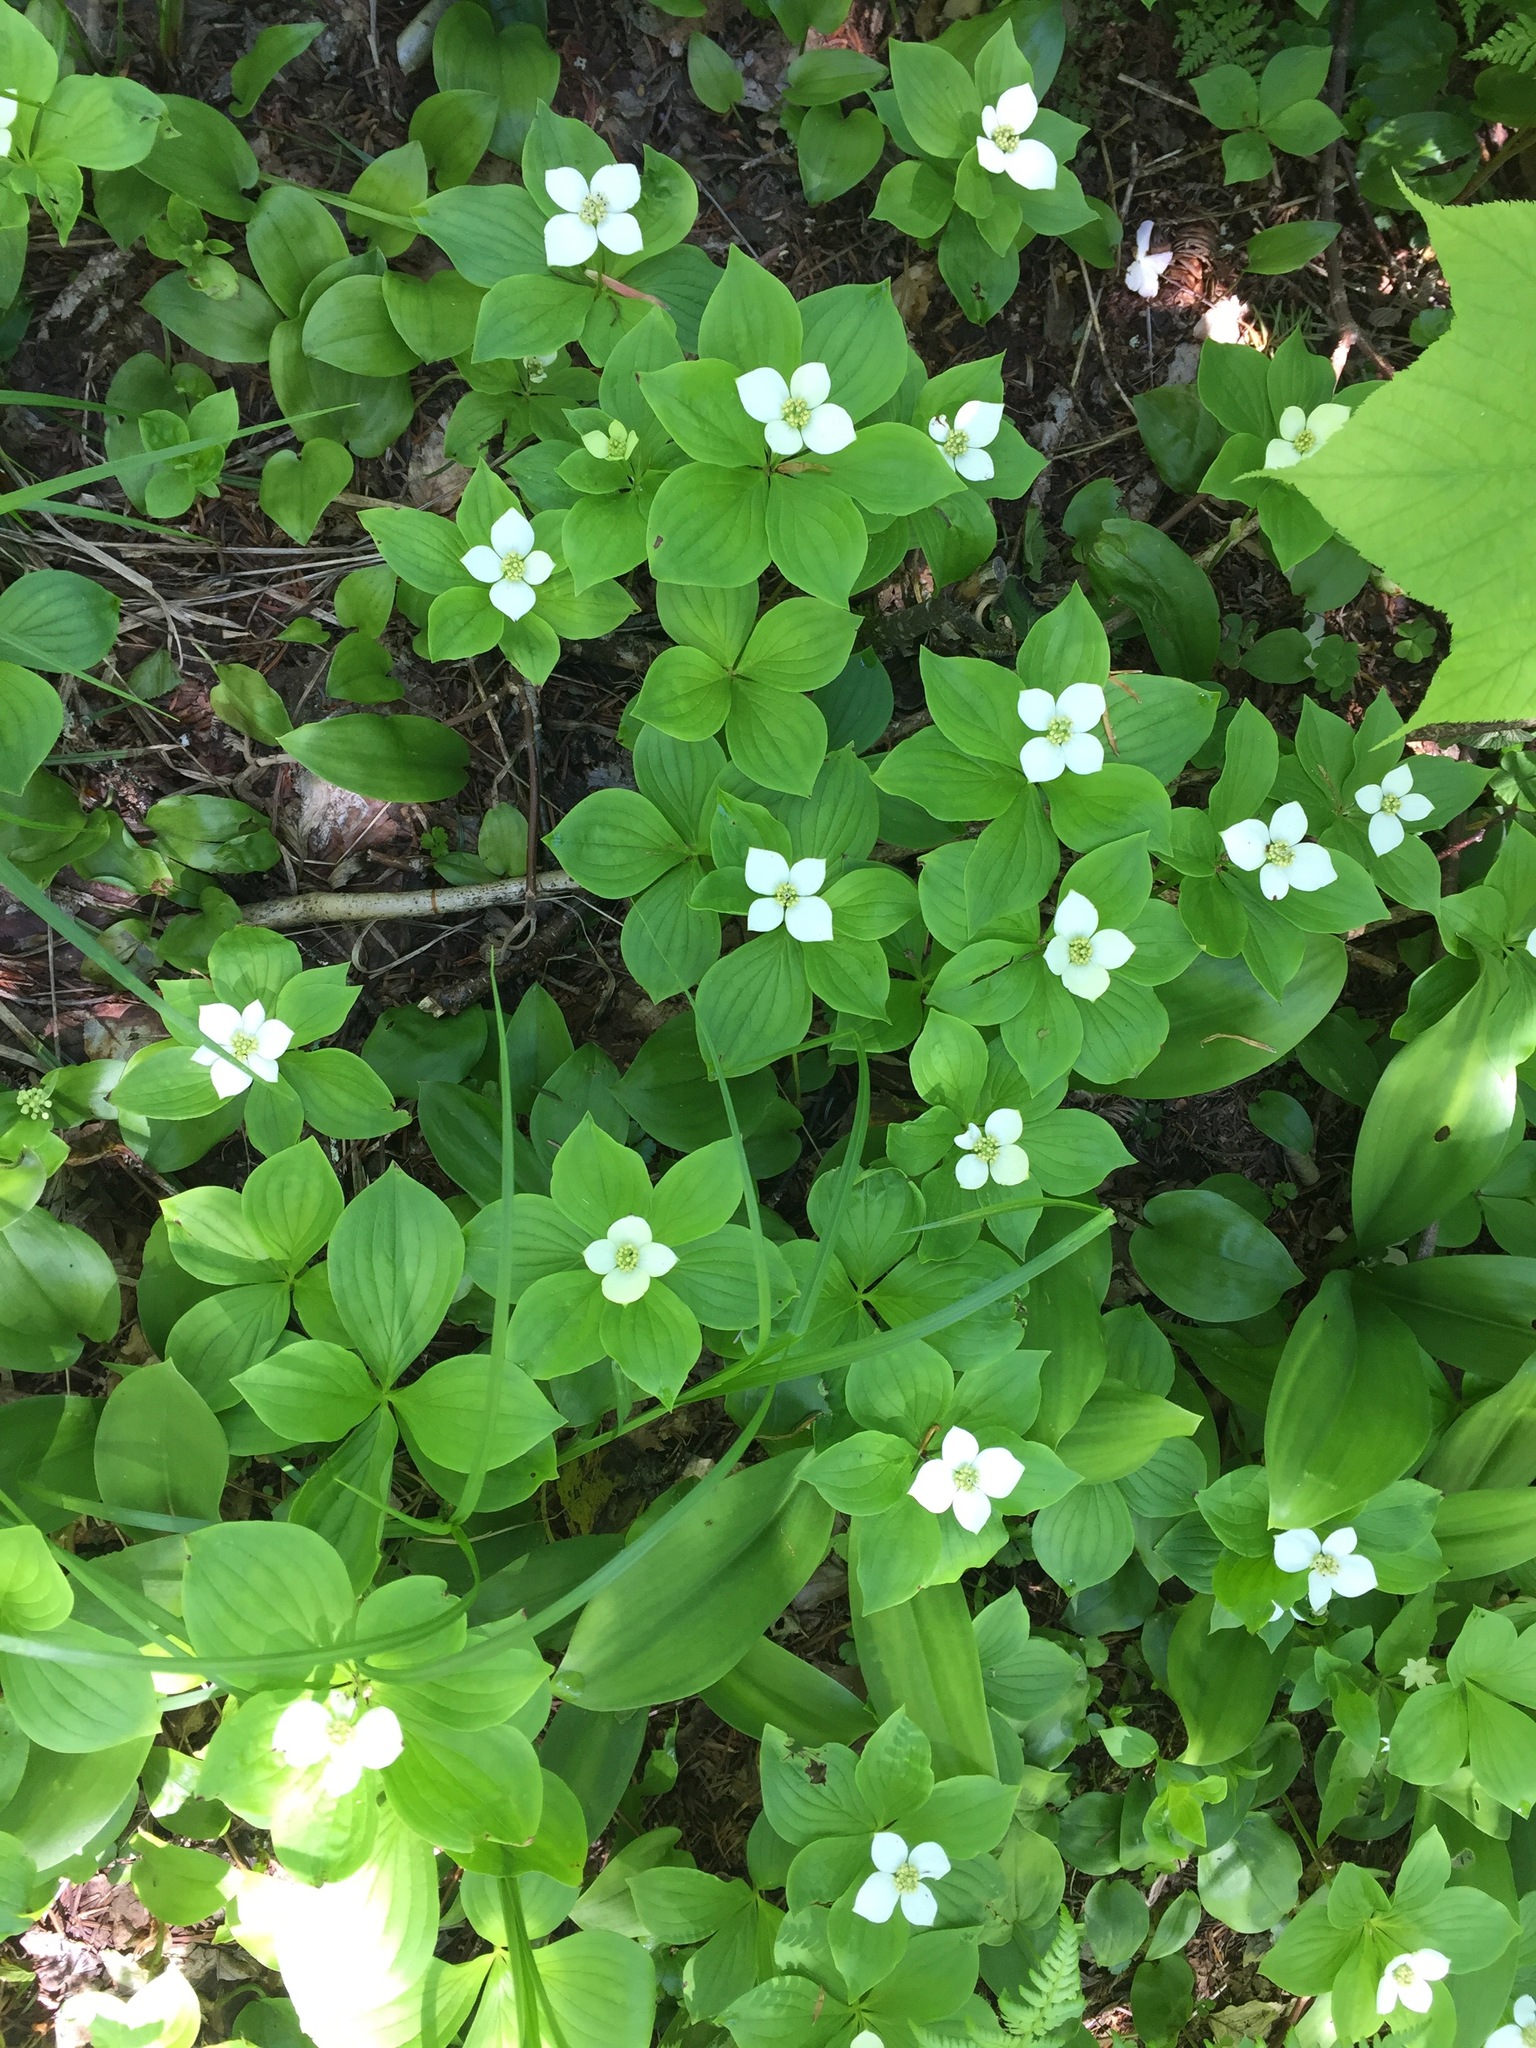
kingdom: Plantae
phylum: Tracheophyta
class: Magnoliopsida
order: Cornales
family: Cornaceae
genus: Cornus
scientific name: Cornus canadensis
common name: Creeping dogwood
